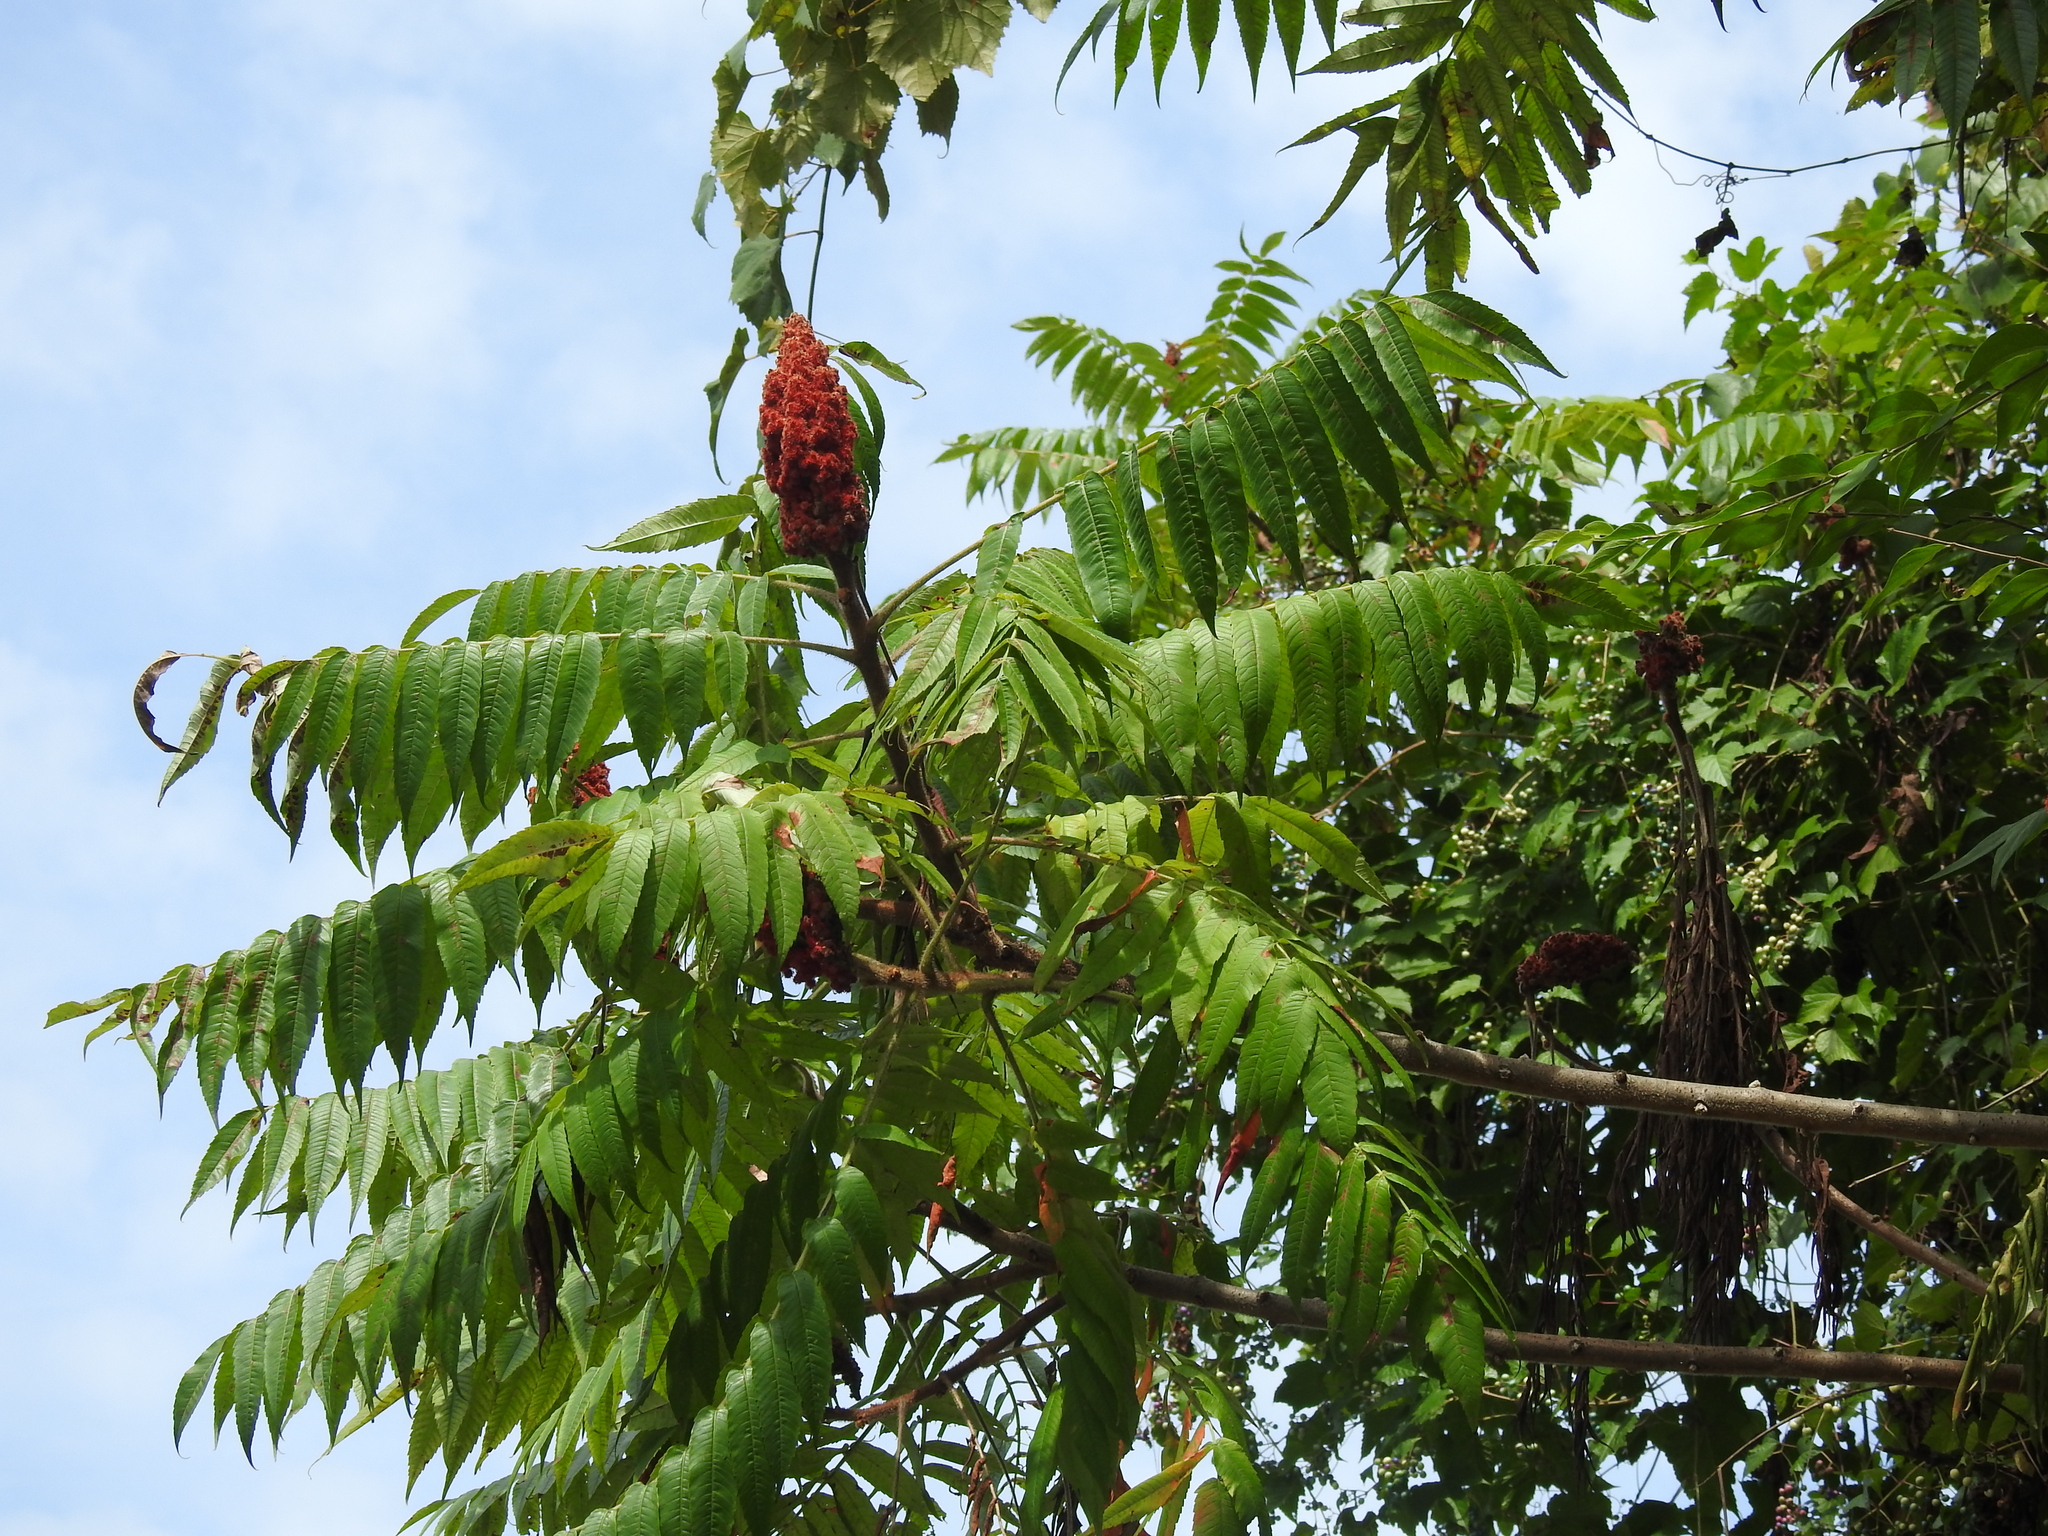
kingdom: Plantae
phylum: Tracheophyta
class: Magnoliopsida
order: Sapindales
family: Anacardiaceae
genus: Rhus
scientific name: Rhus typhina
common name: Staghorn sumac
